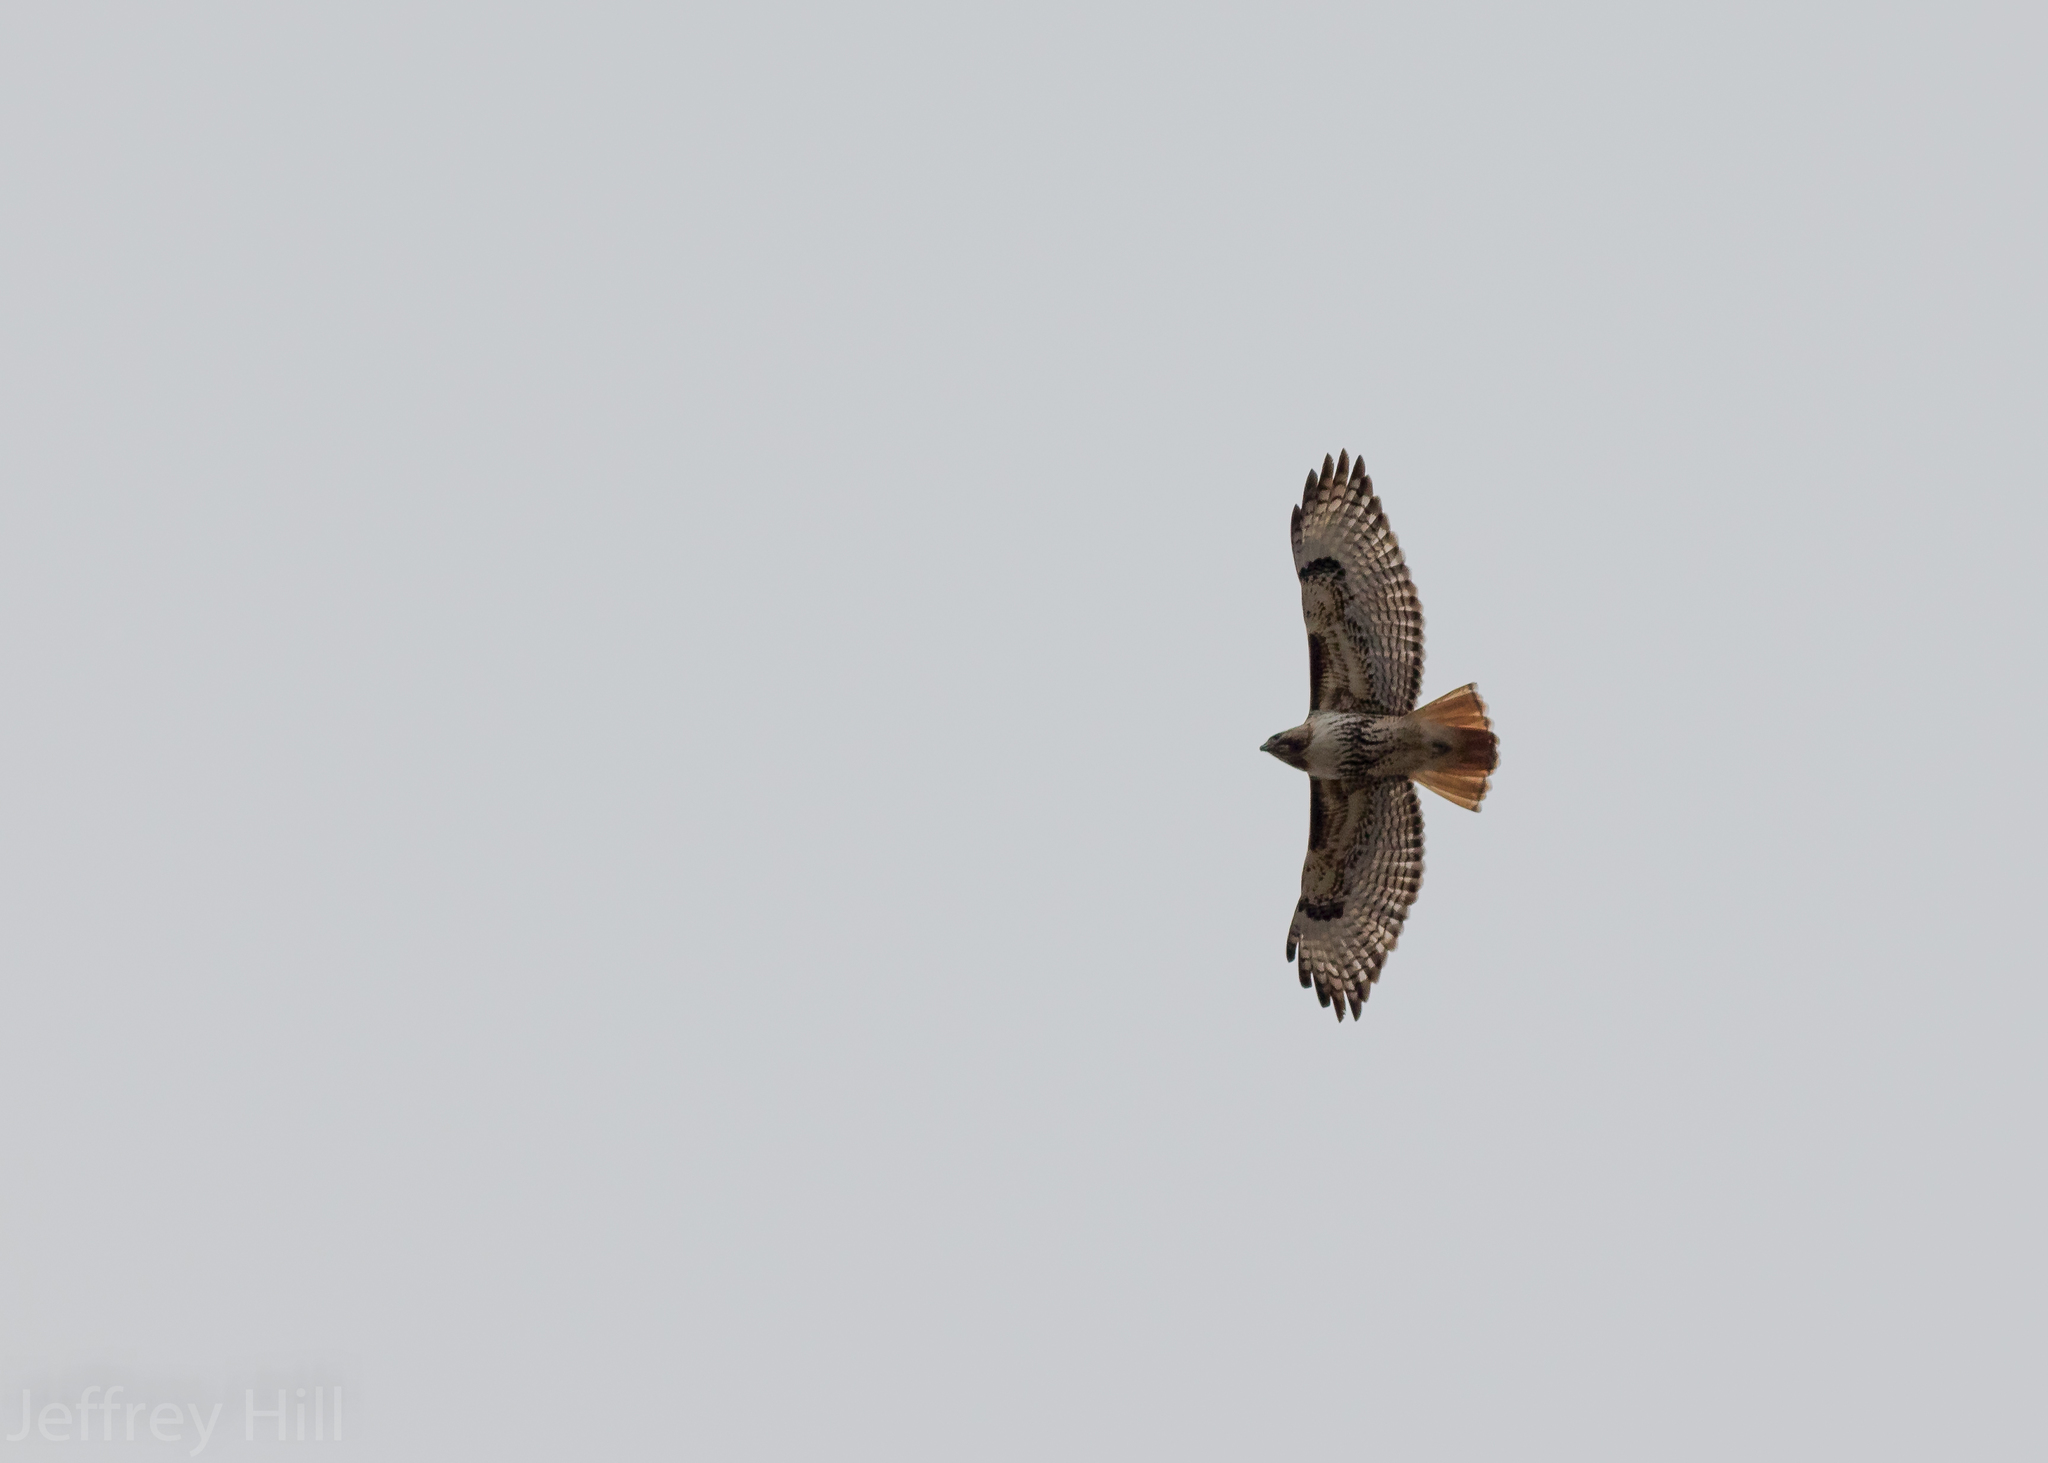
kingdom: Animalia
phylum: Chordata
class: Aves
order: Accipitriformes
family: Accipitridae
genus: Buteo
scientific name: Buteo jamaicensis
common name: Red-tailed hawk
